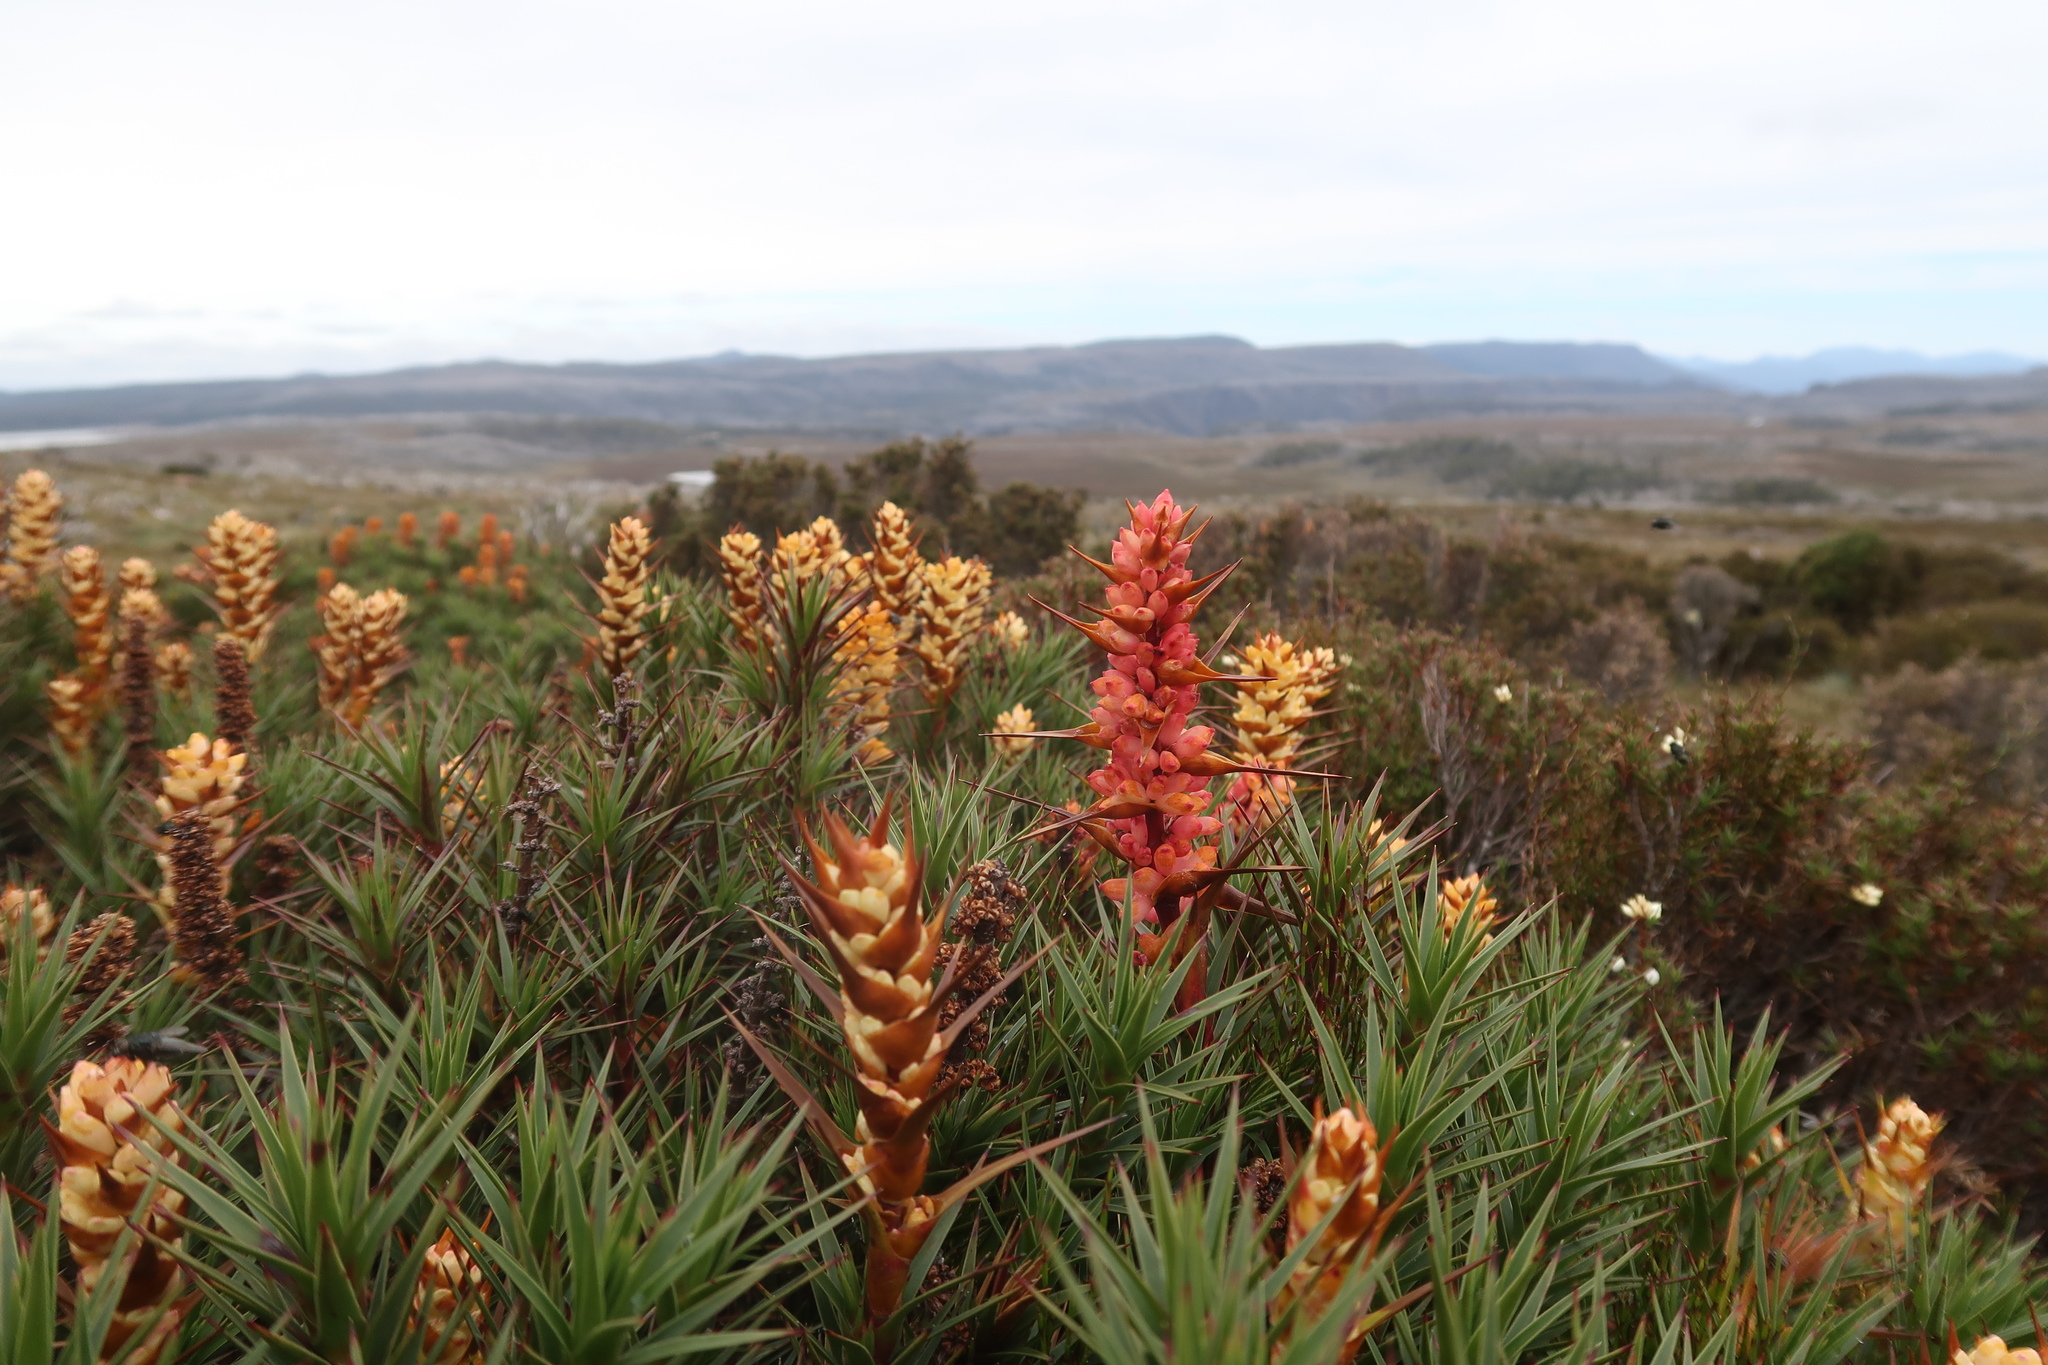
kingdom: Plantae
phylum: Tracheophyta
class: Magnoliopsida
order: Ericales
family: Ericaceae
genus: Dracophyllum
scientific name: Dracophyllum persistentifolium
